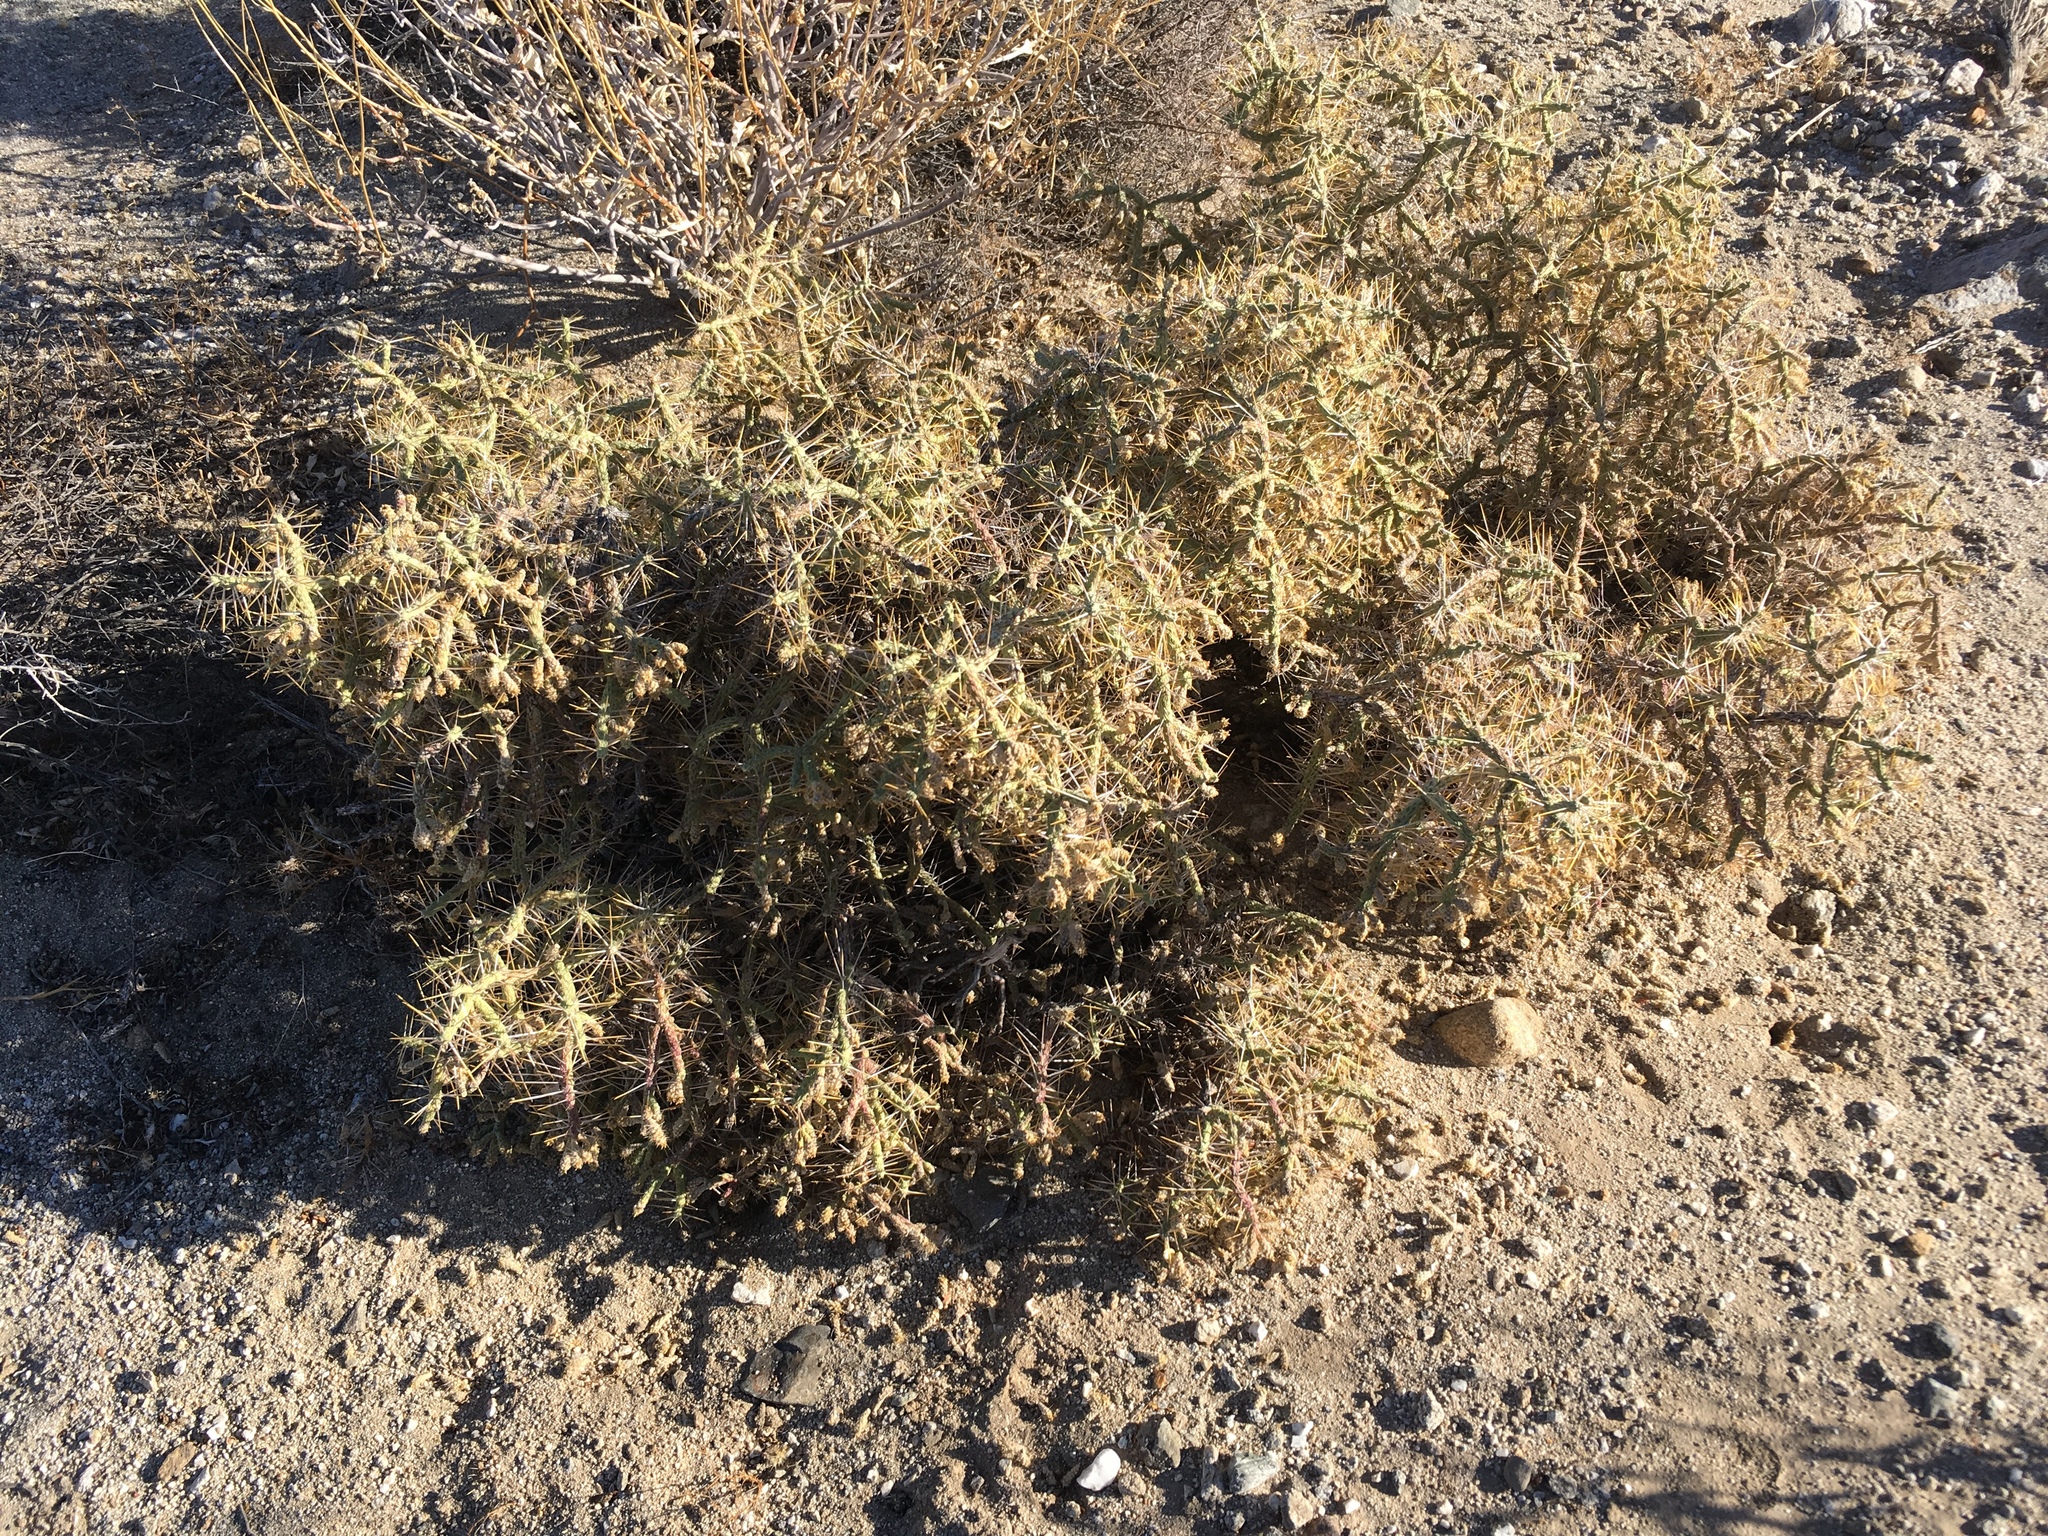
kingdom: Plantae
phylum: Tracheophyta
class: Magnoliopsida
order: Caryophyllales
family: Cactaceae
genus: Cylindropuntia
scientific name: Cylindropuntia ramosissima
